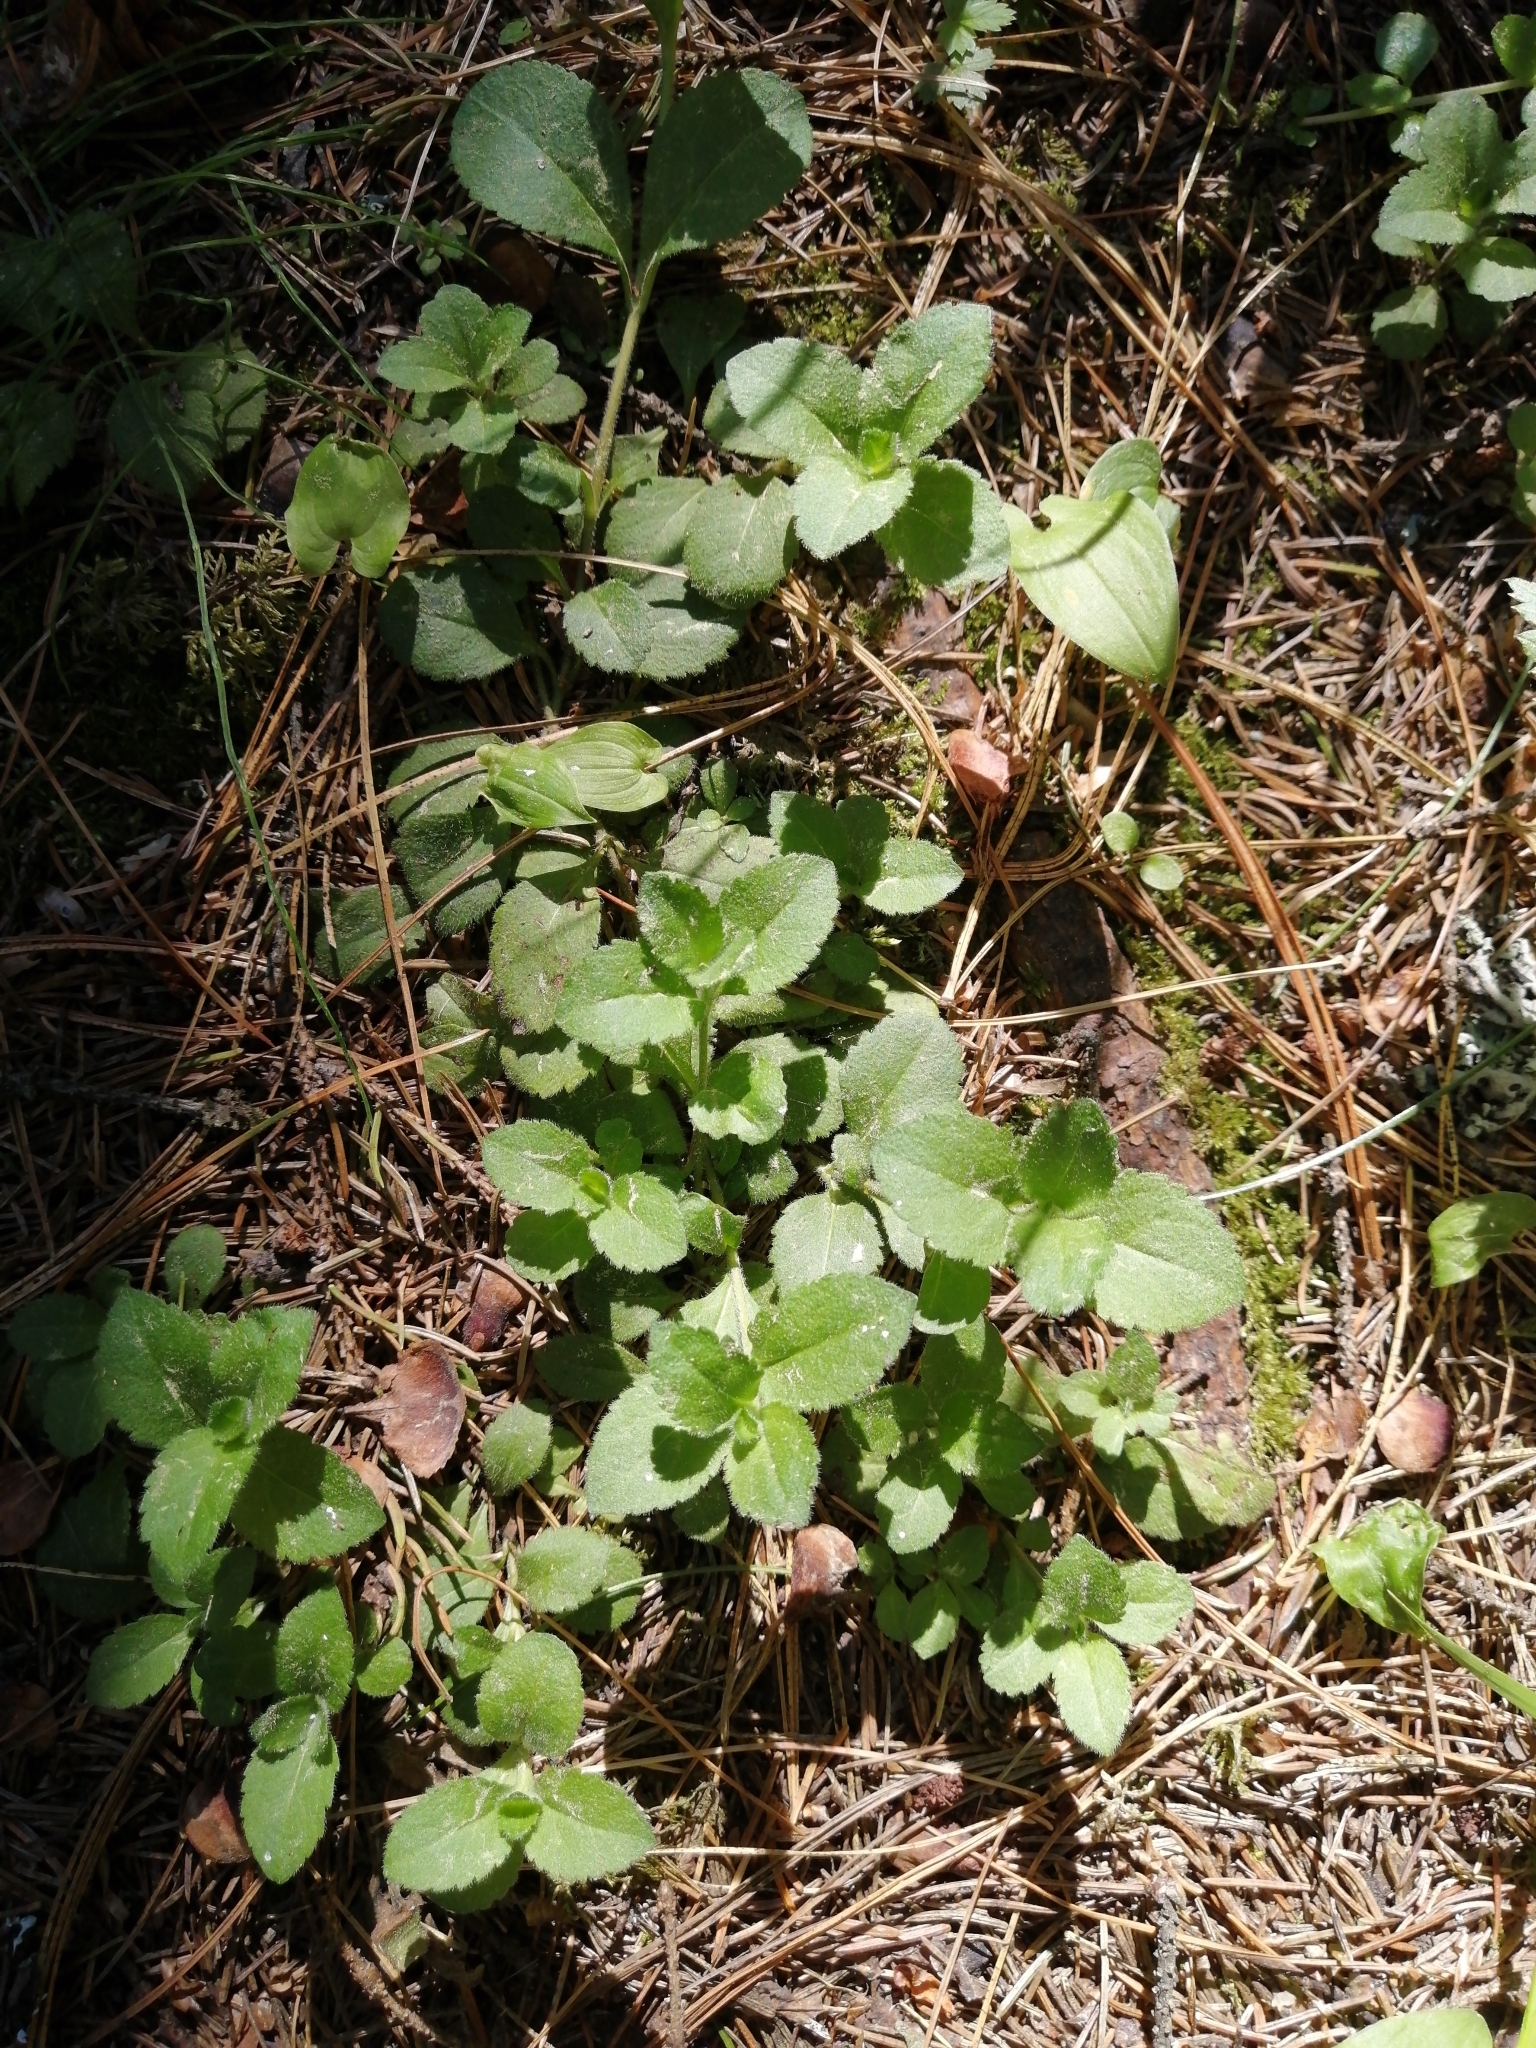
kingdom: Plantae
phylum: Tracheophyta
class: Magnoliopsida
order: Lamiales
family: Plantaginaceae
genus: Veronica
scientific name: Veronica officinalis
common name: Common speedwell
